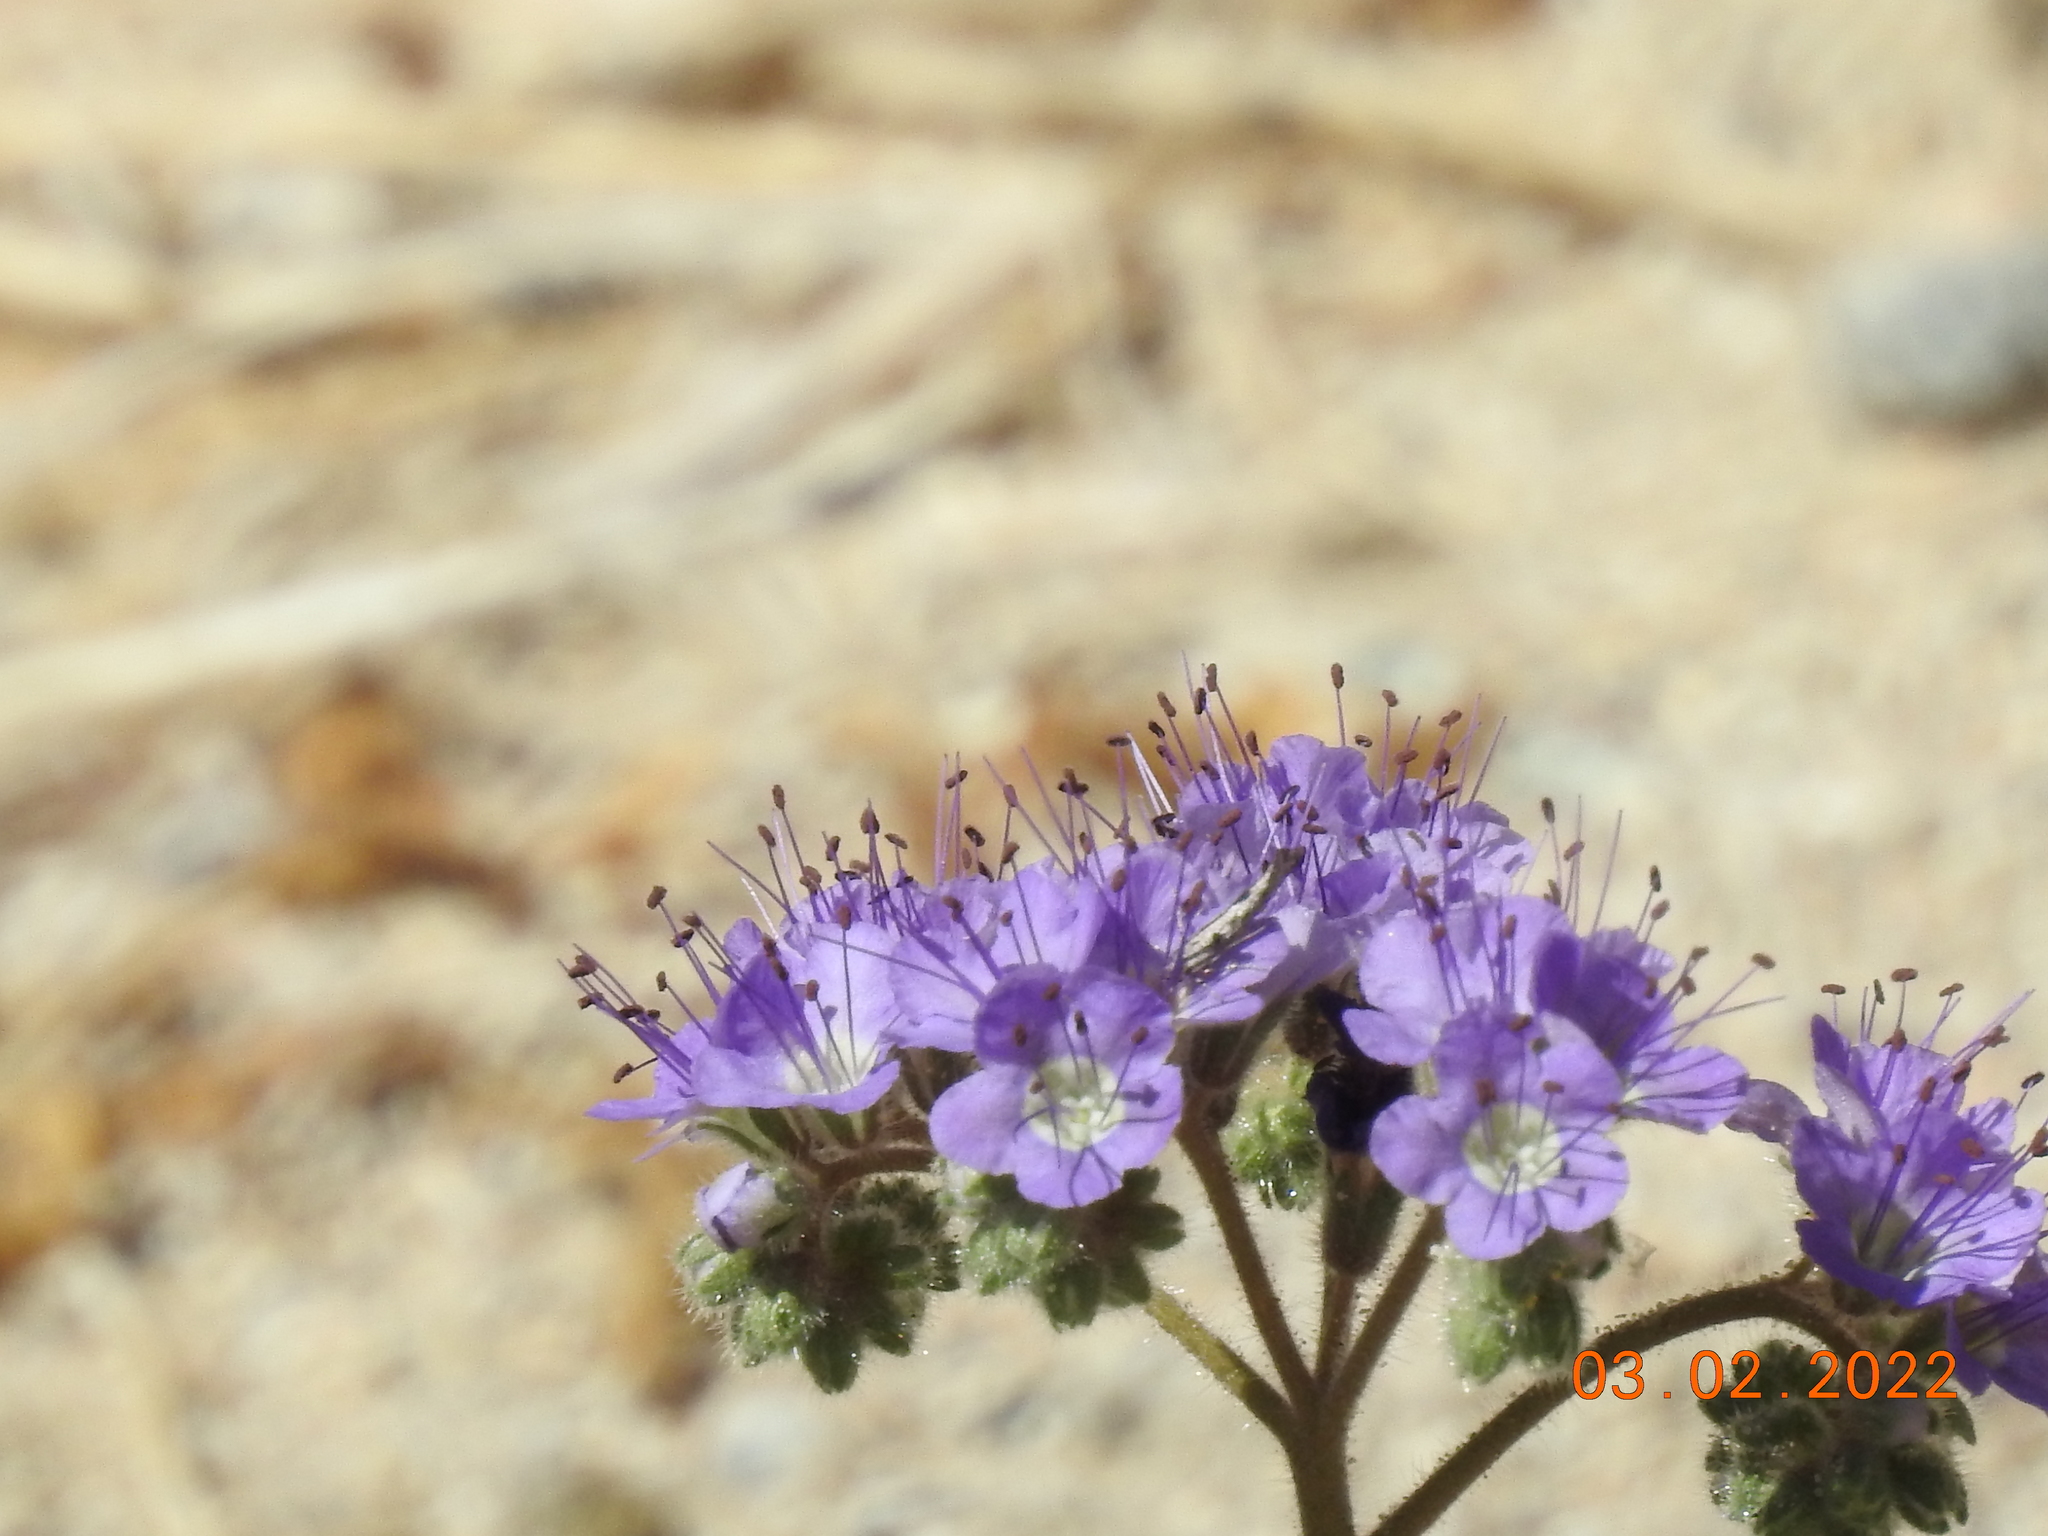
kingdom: Plantae
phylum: Tracheophyta
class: Magnoliopsida
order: Boraginales
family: Hydrophyllaceae
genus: Phacelia
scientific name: Phacelia crenulata
